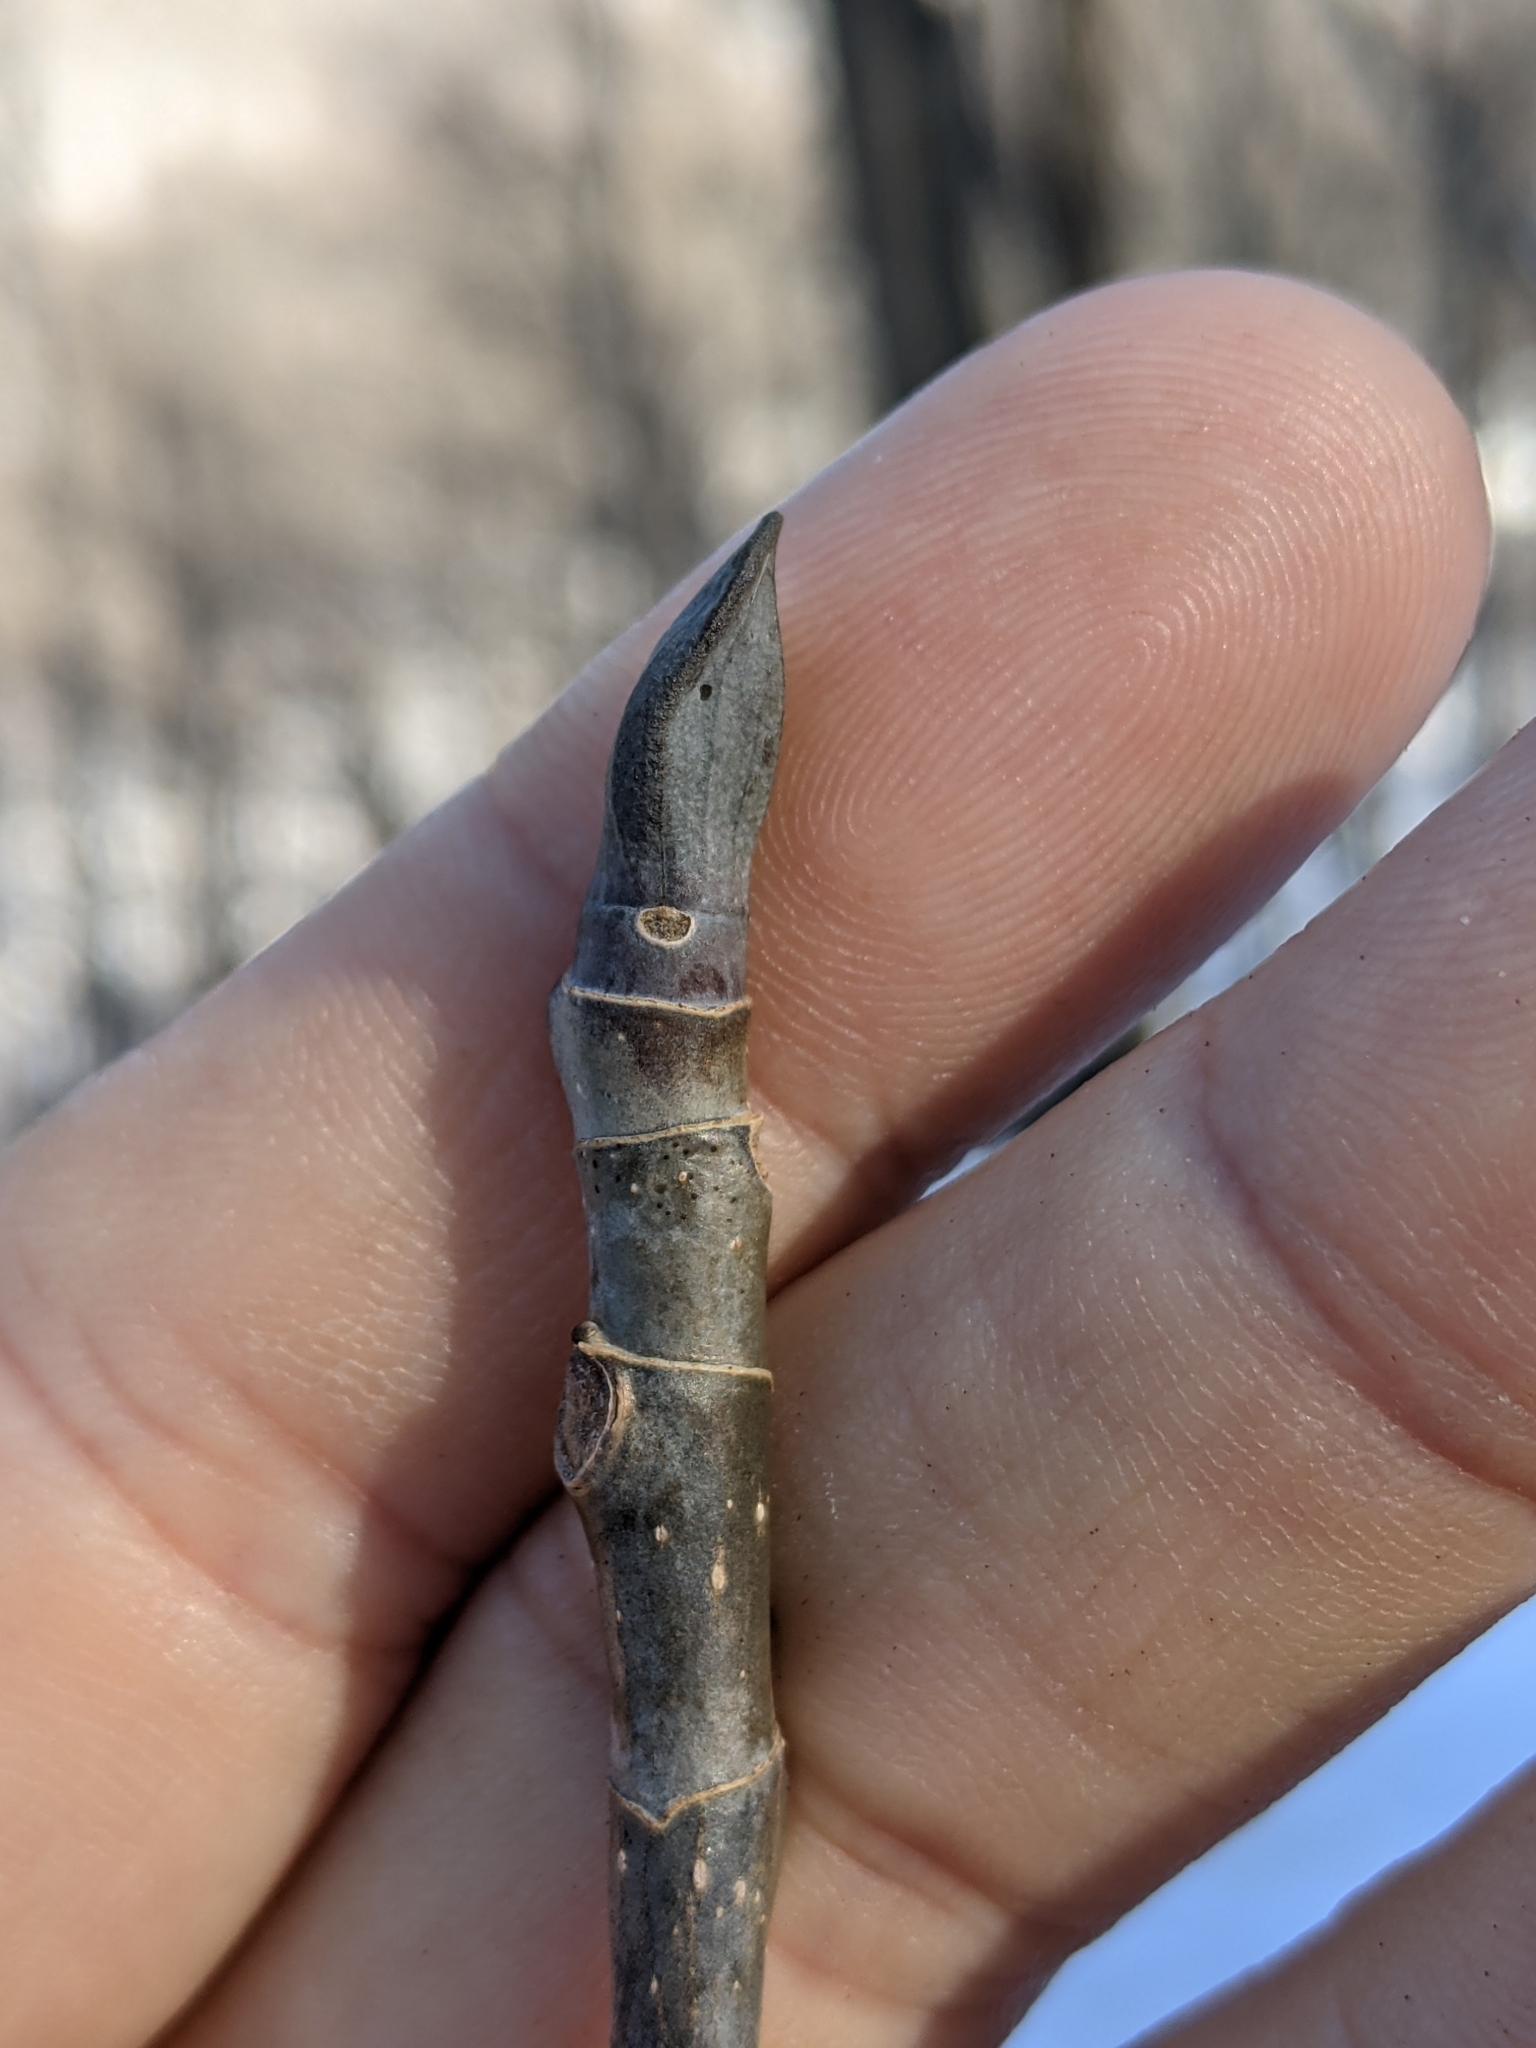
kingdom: Plantae
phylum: Tracheophyta
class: Magnoliopsida
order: Magnoliales
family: Magnoliaceae
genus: Liriodendron
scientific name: Liriodendron tulipifera
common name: Tulip tree
